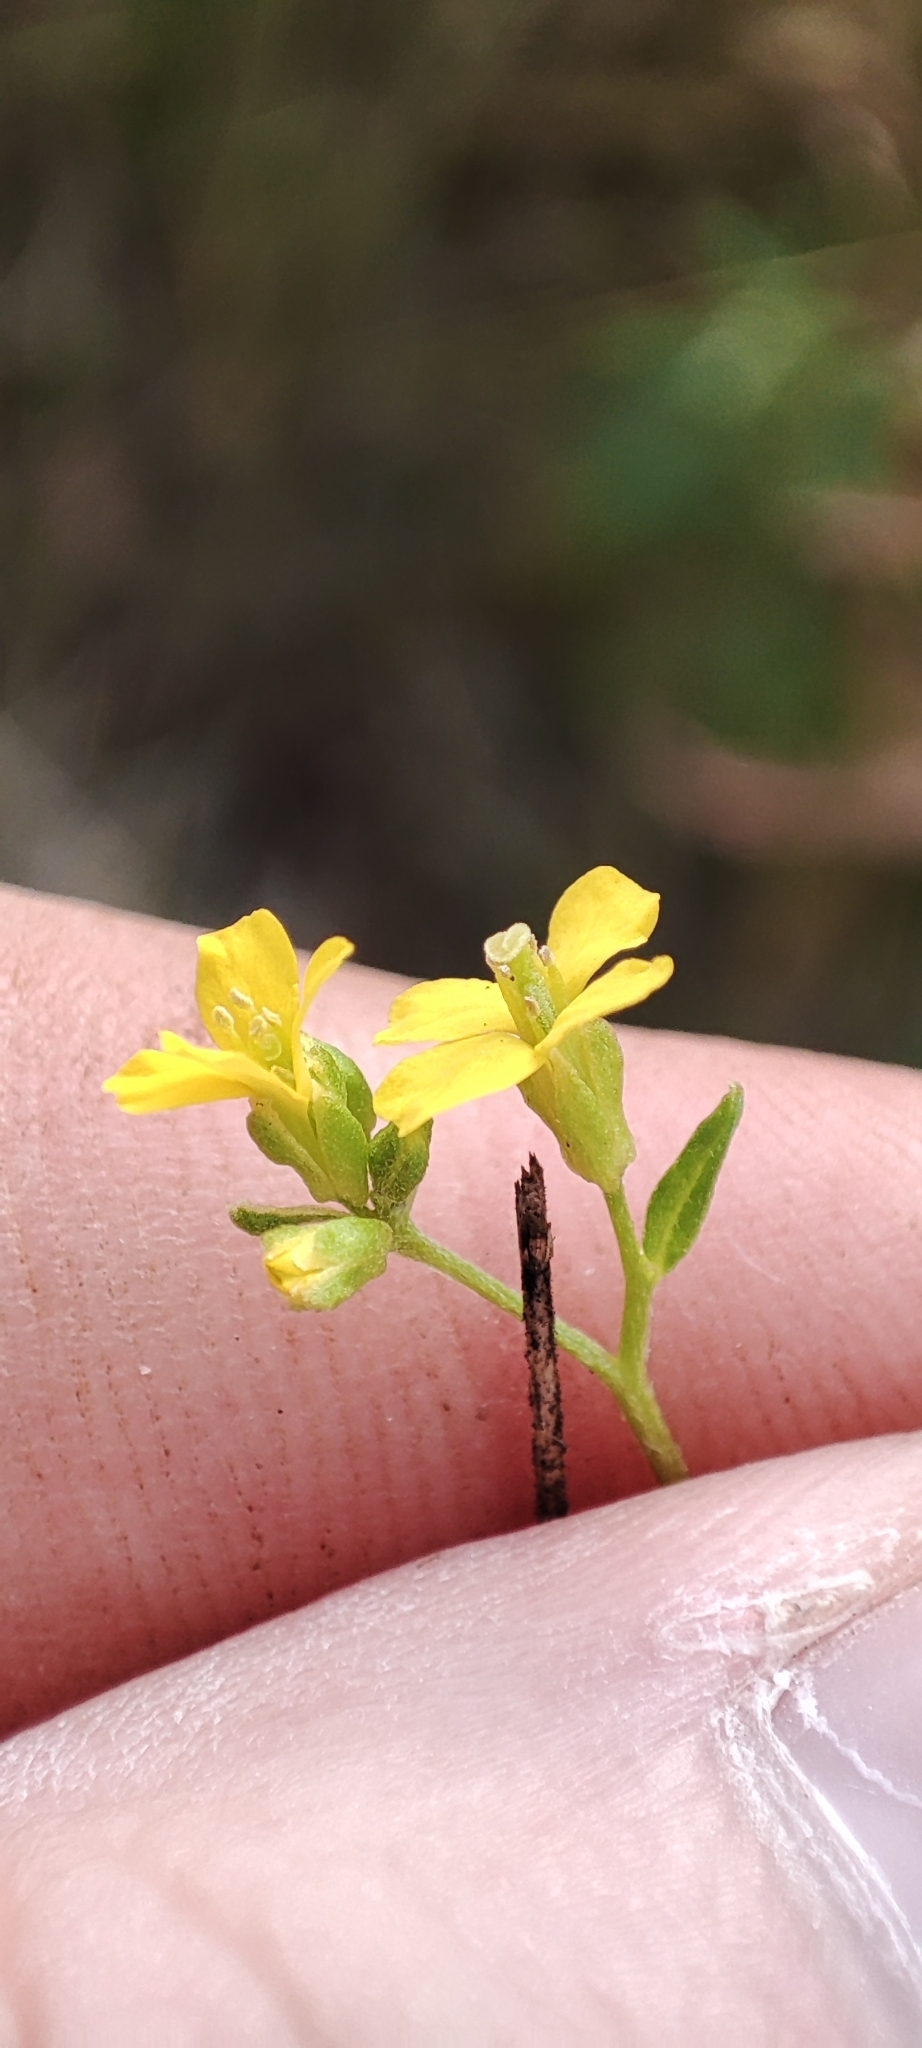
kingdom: Plantae
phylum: Tracheophyta
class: Magnoliopsida
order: Brassicales
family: Brassicaceae
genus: Erysimum
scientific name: Erysimum cheiranthoides
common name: Treacle mustard
